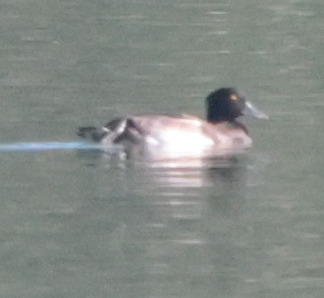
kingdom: Animalia
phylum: Chordata
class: Aves
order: Anseriformes
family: Anatidae
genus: Aythya
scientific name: Aythya fuligula
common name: Tufted duck
